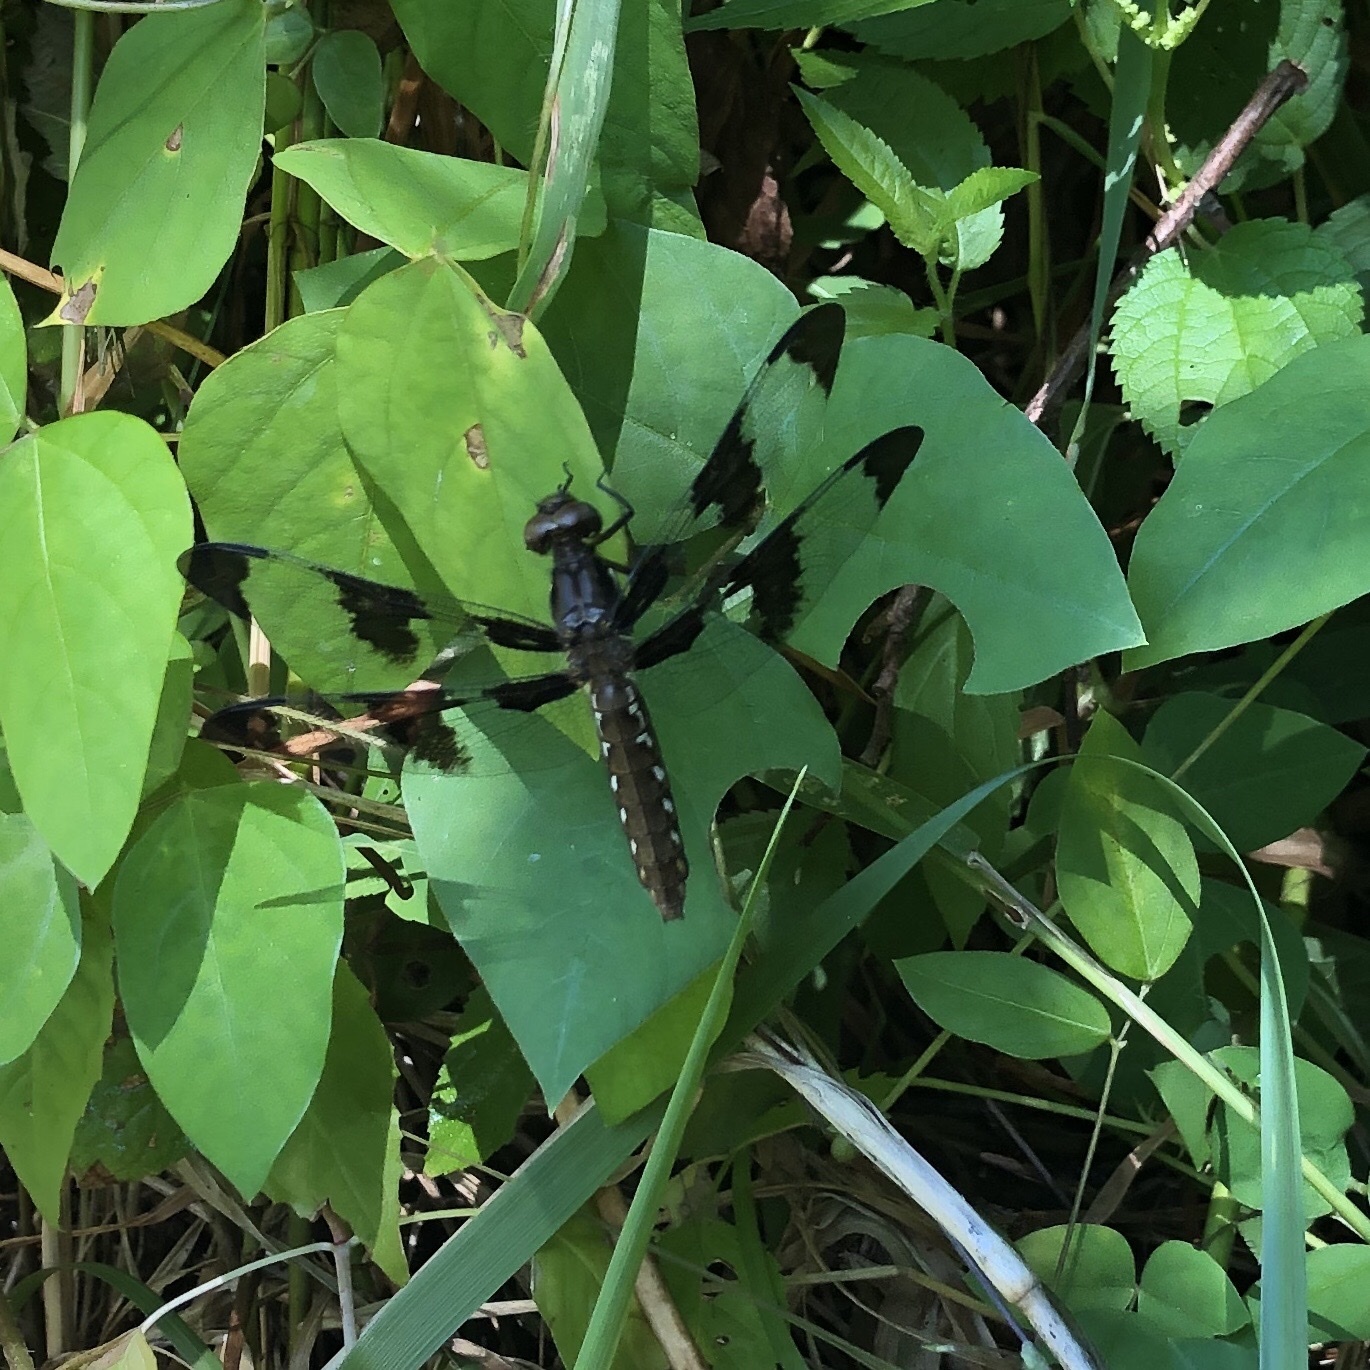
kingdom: Animalia
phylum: Arthropoda
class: Insecta
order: Odonata
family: Libellulidae
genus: Plathemis
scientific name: Plathemis lydia
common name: Common whitetail
